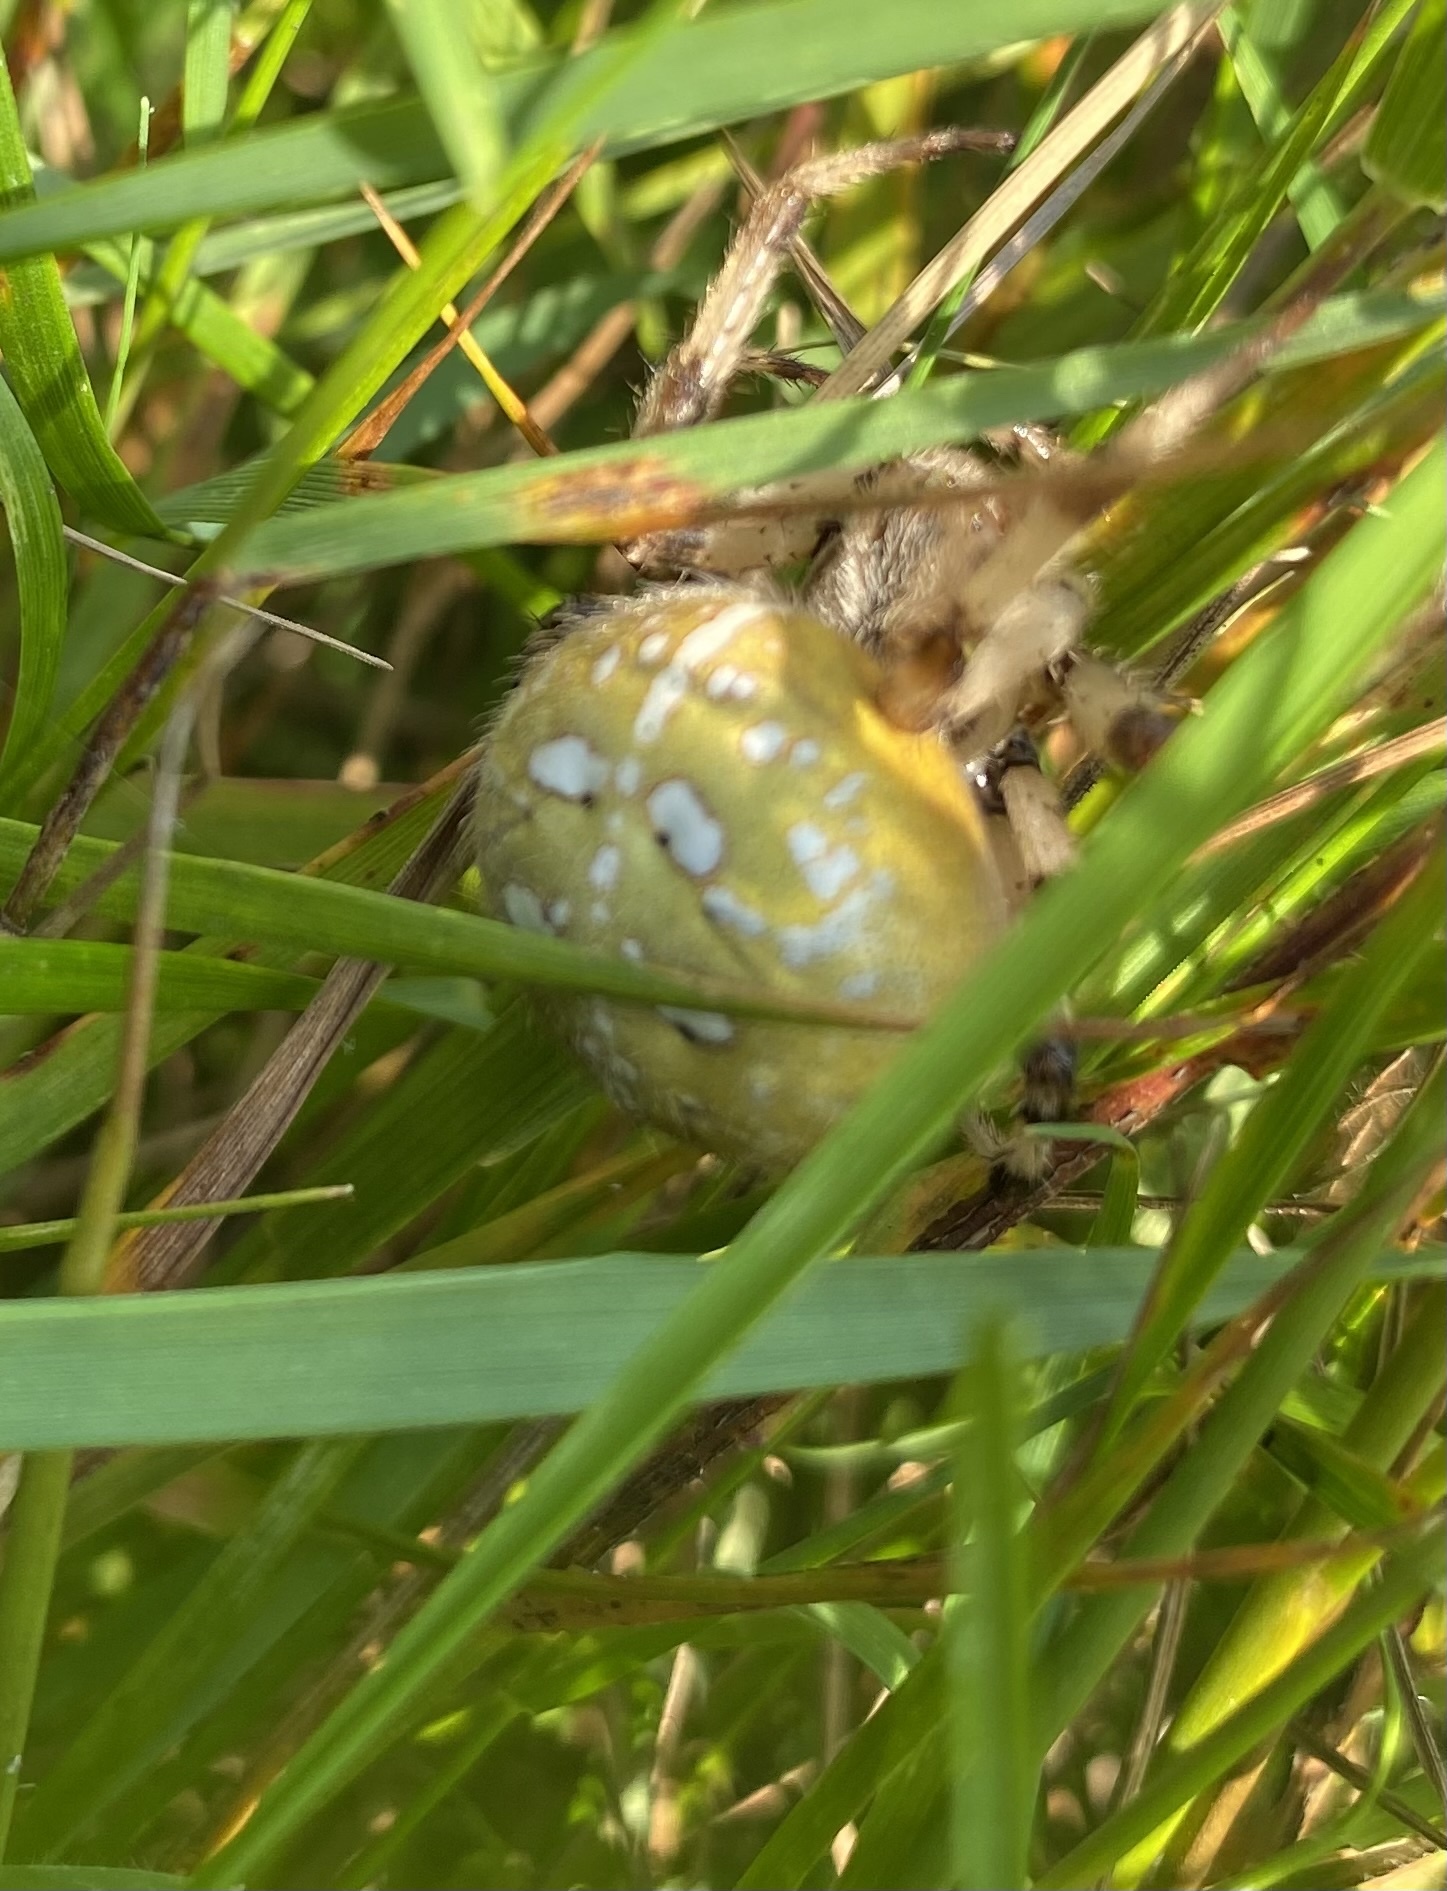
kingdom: Animalia
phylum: Arthropoda
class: Arachnida
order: Araneae
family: Araneidae
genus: Araneus
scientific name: Araneus quadratus
